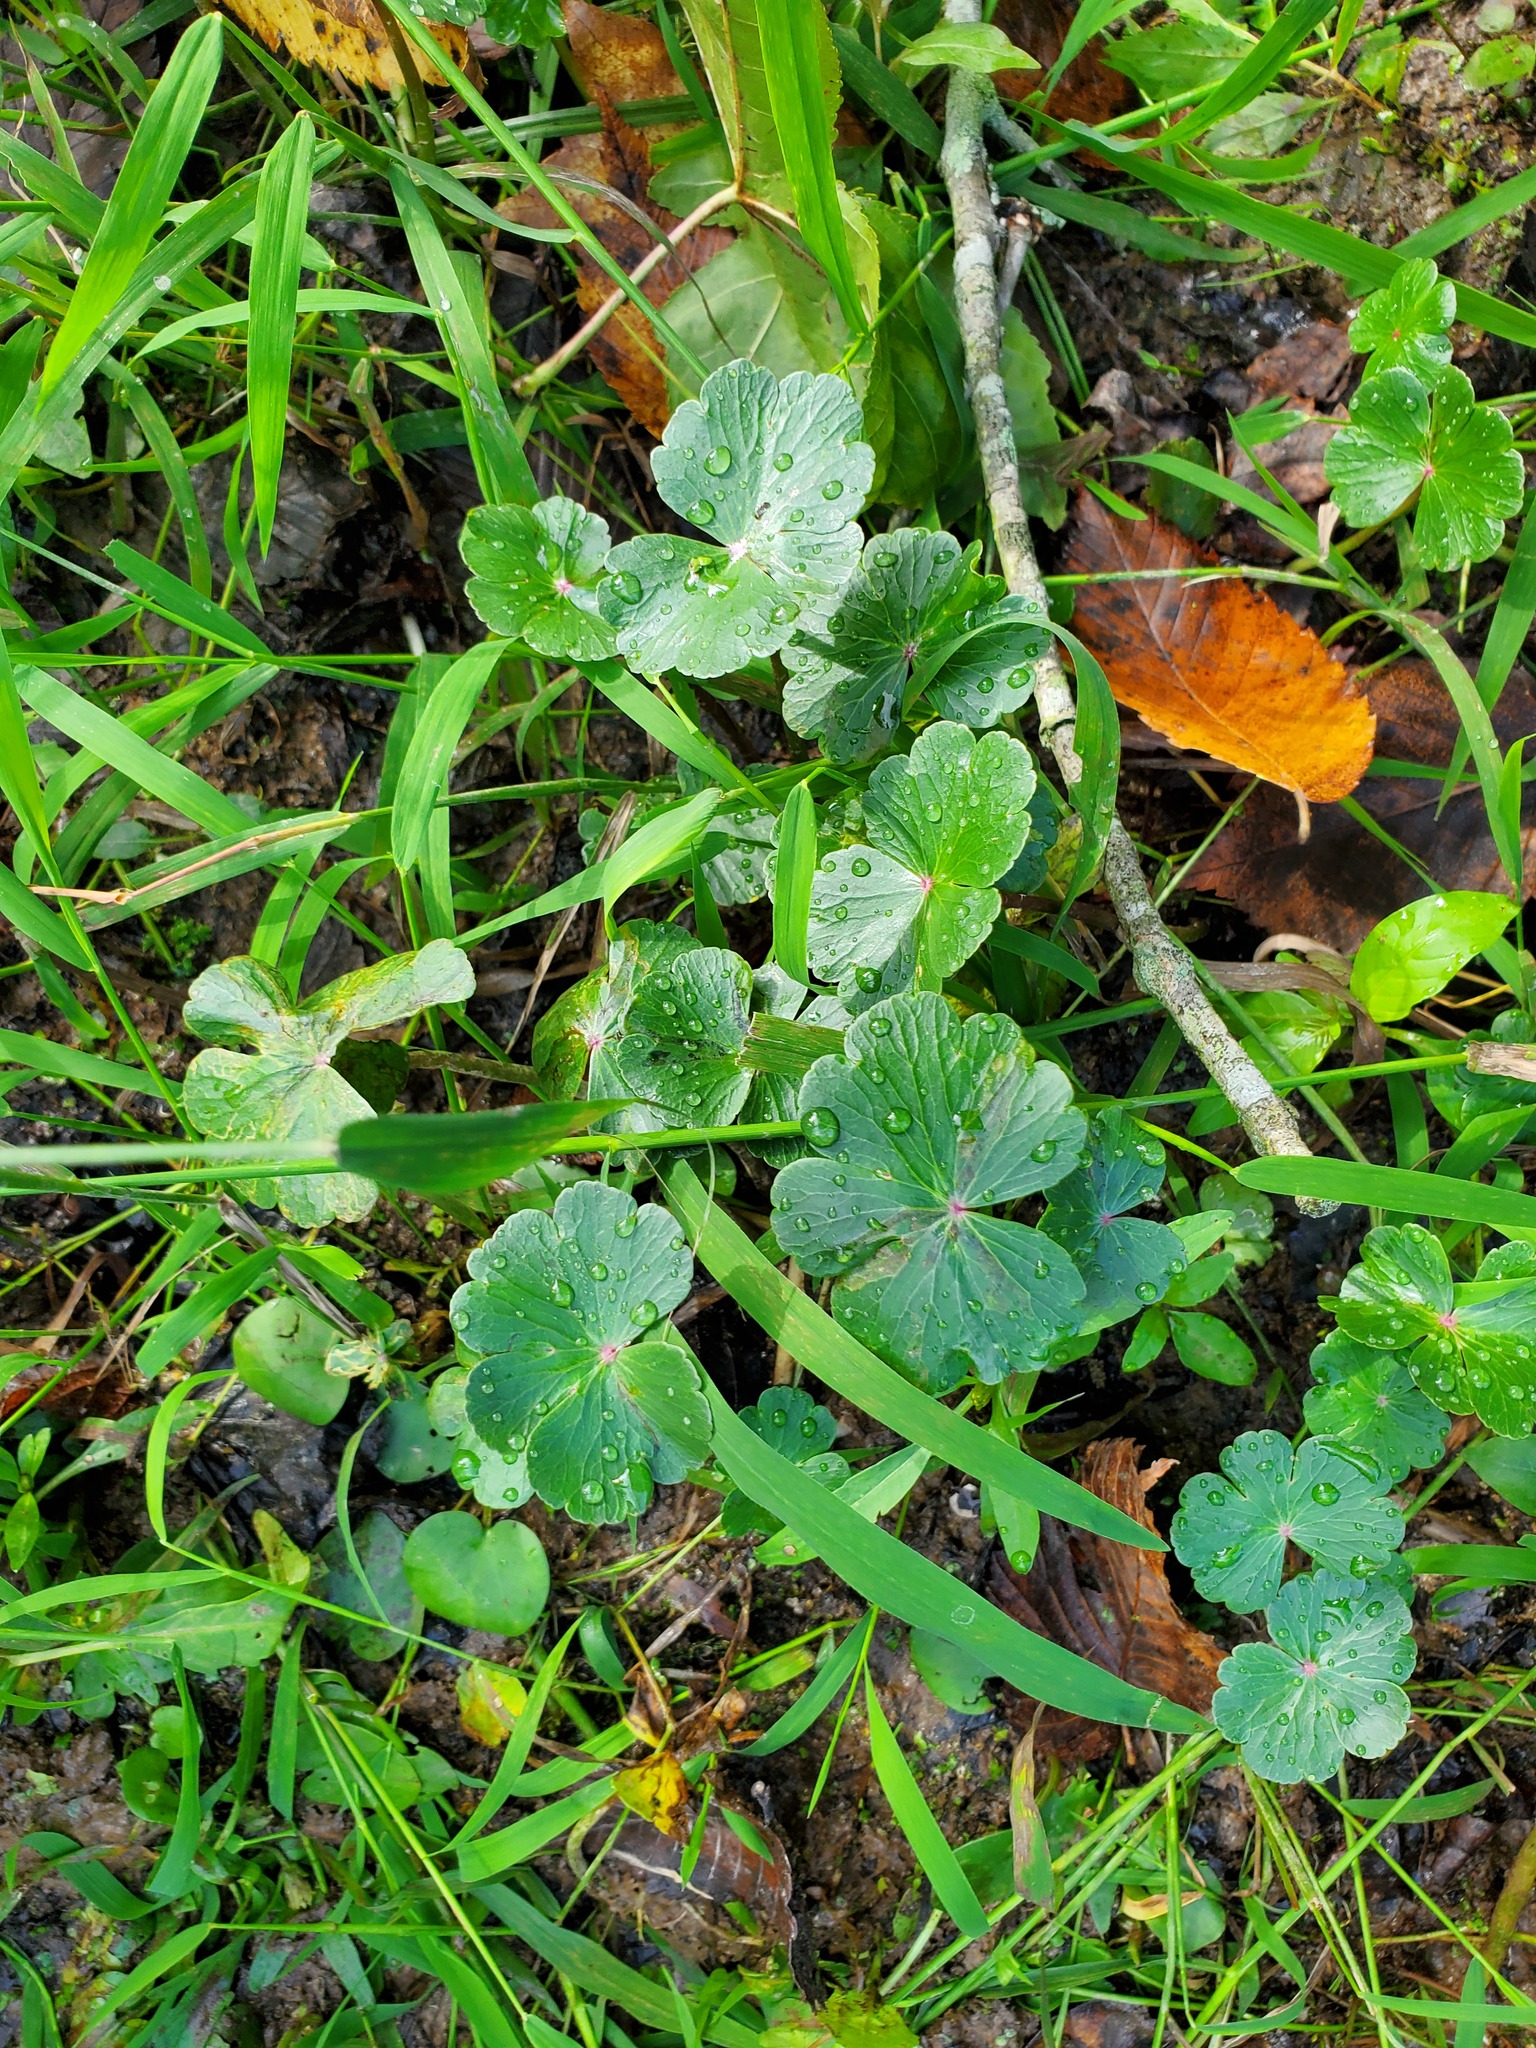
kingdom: Plantae
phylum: Tracheophyta
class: Magnoliopsida
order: Apiales
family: Araliaceae
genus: Hydrocotyle
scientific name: Hydrocotyle ranunculoides
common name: Floating pennywort
